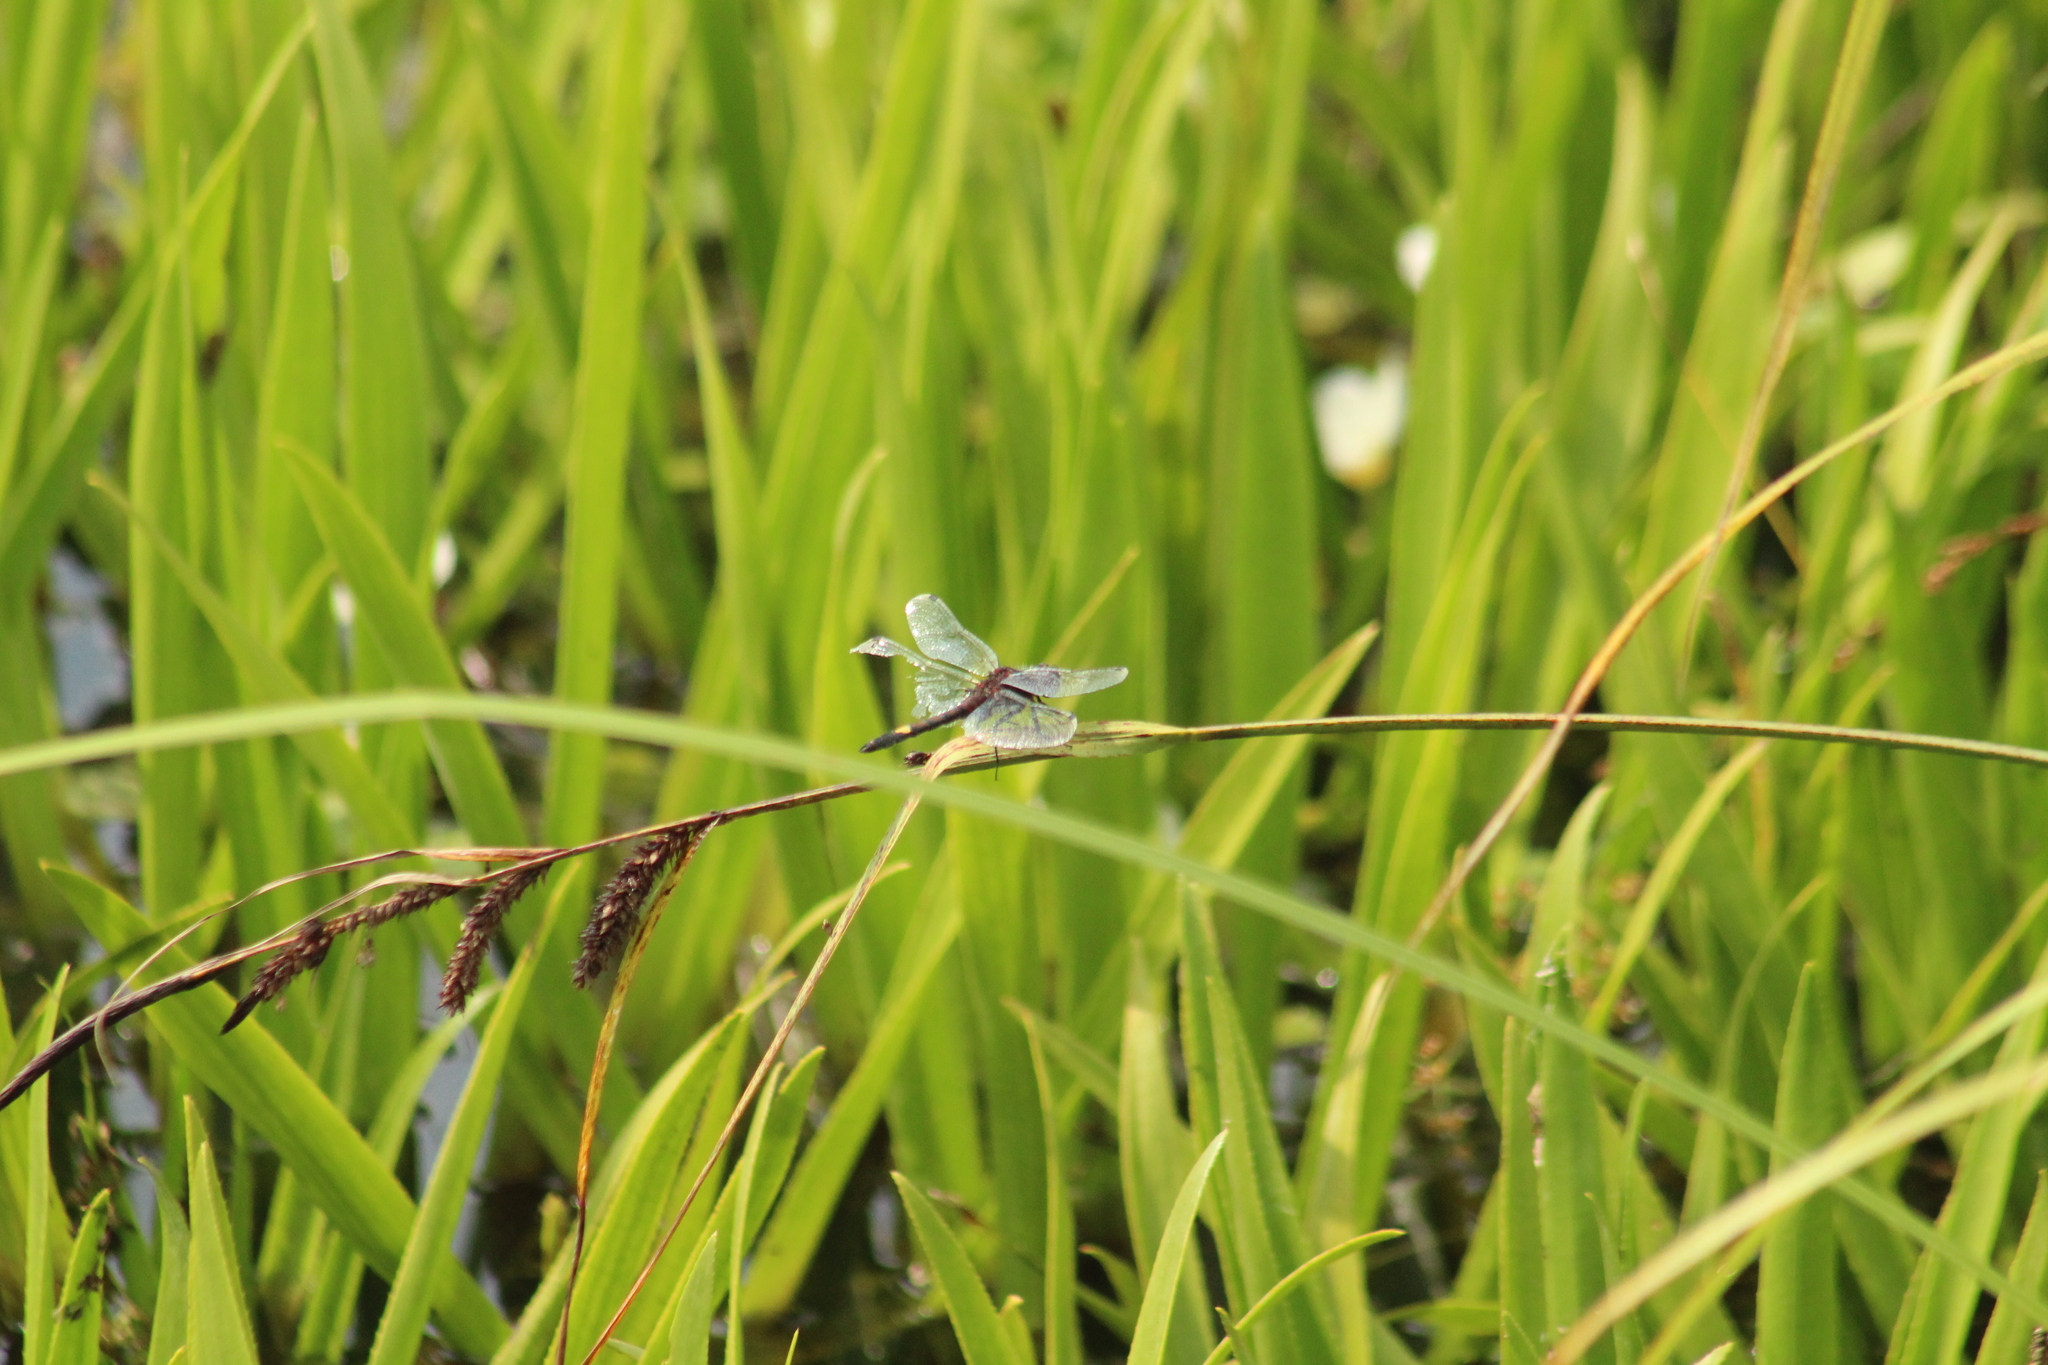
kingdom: Animalia
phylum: Arthropoda
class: Insecta
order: Odonata
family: Libellulidae
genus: Leucorrhinia
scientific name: Leucorrhinia pectoralis
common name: Yellow-spotted whiteface
